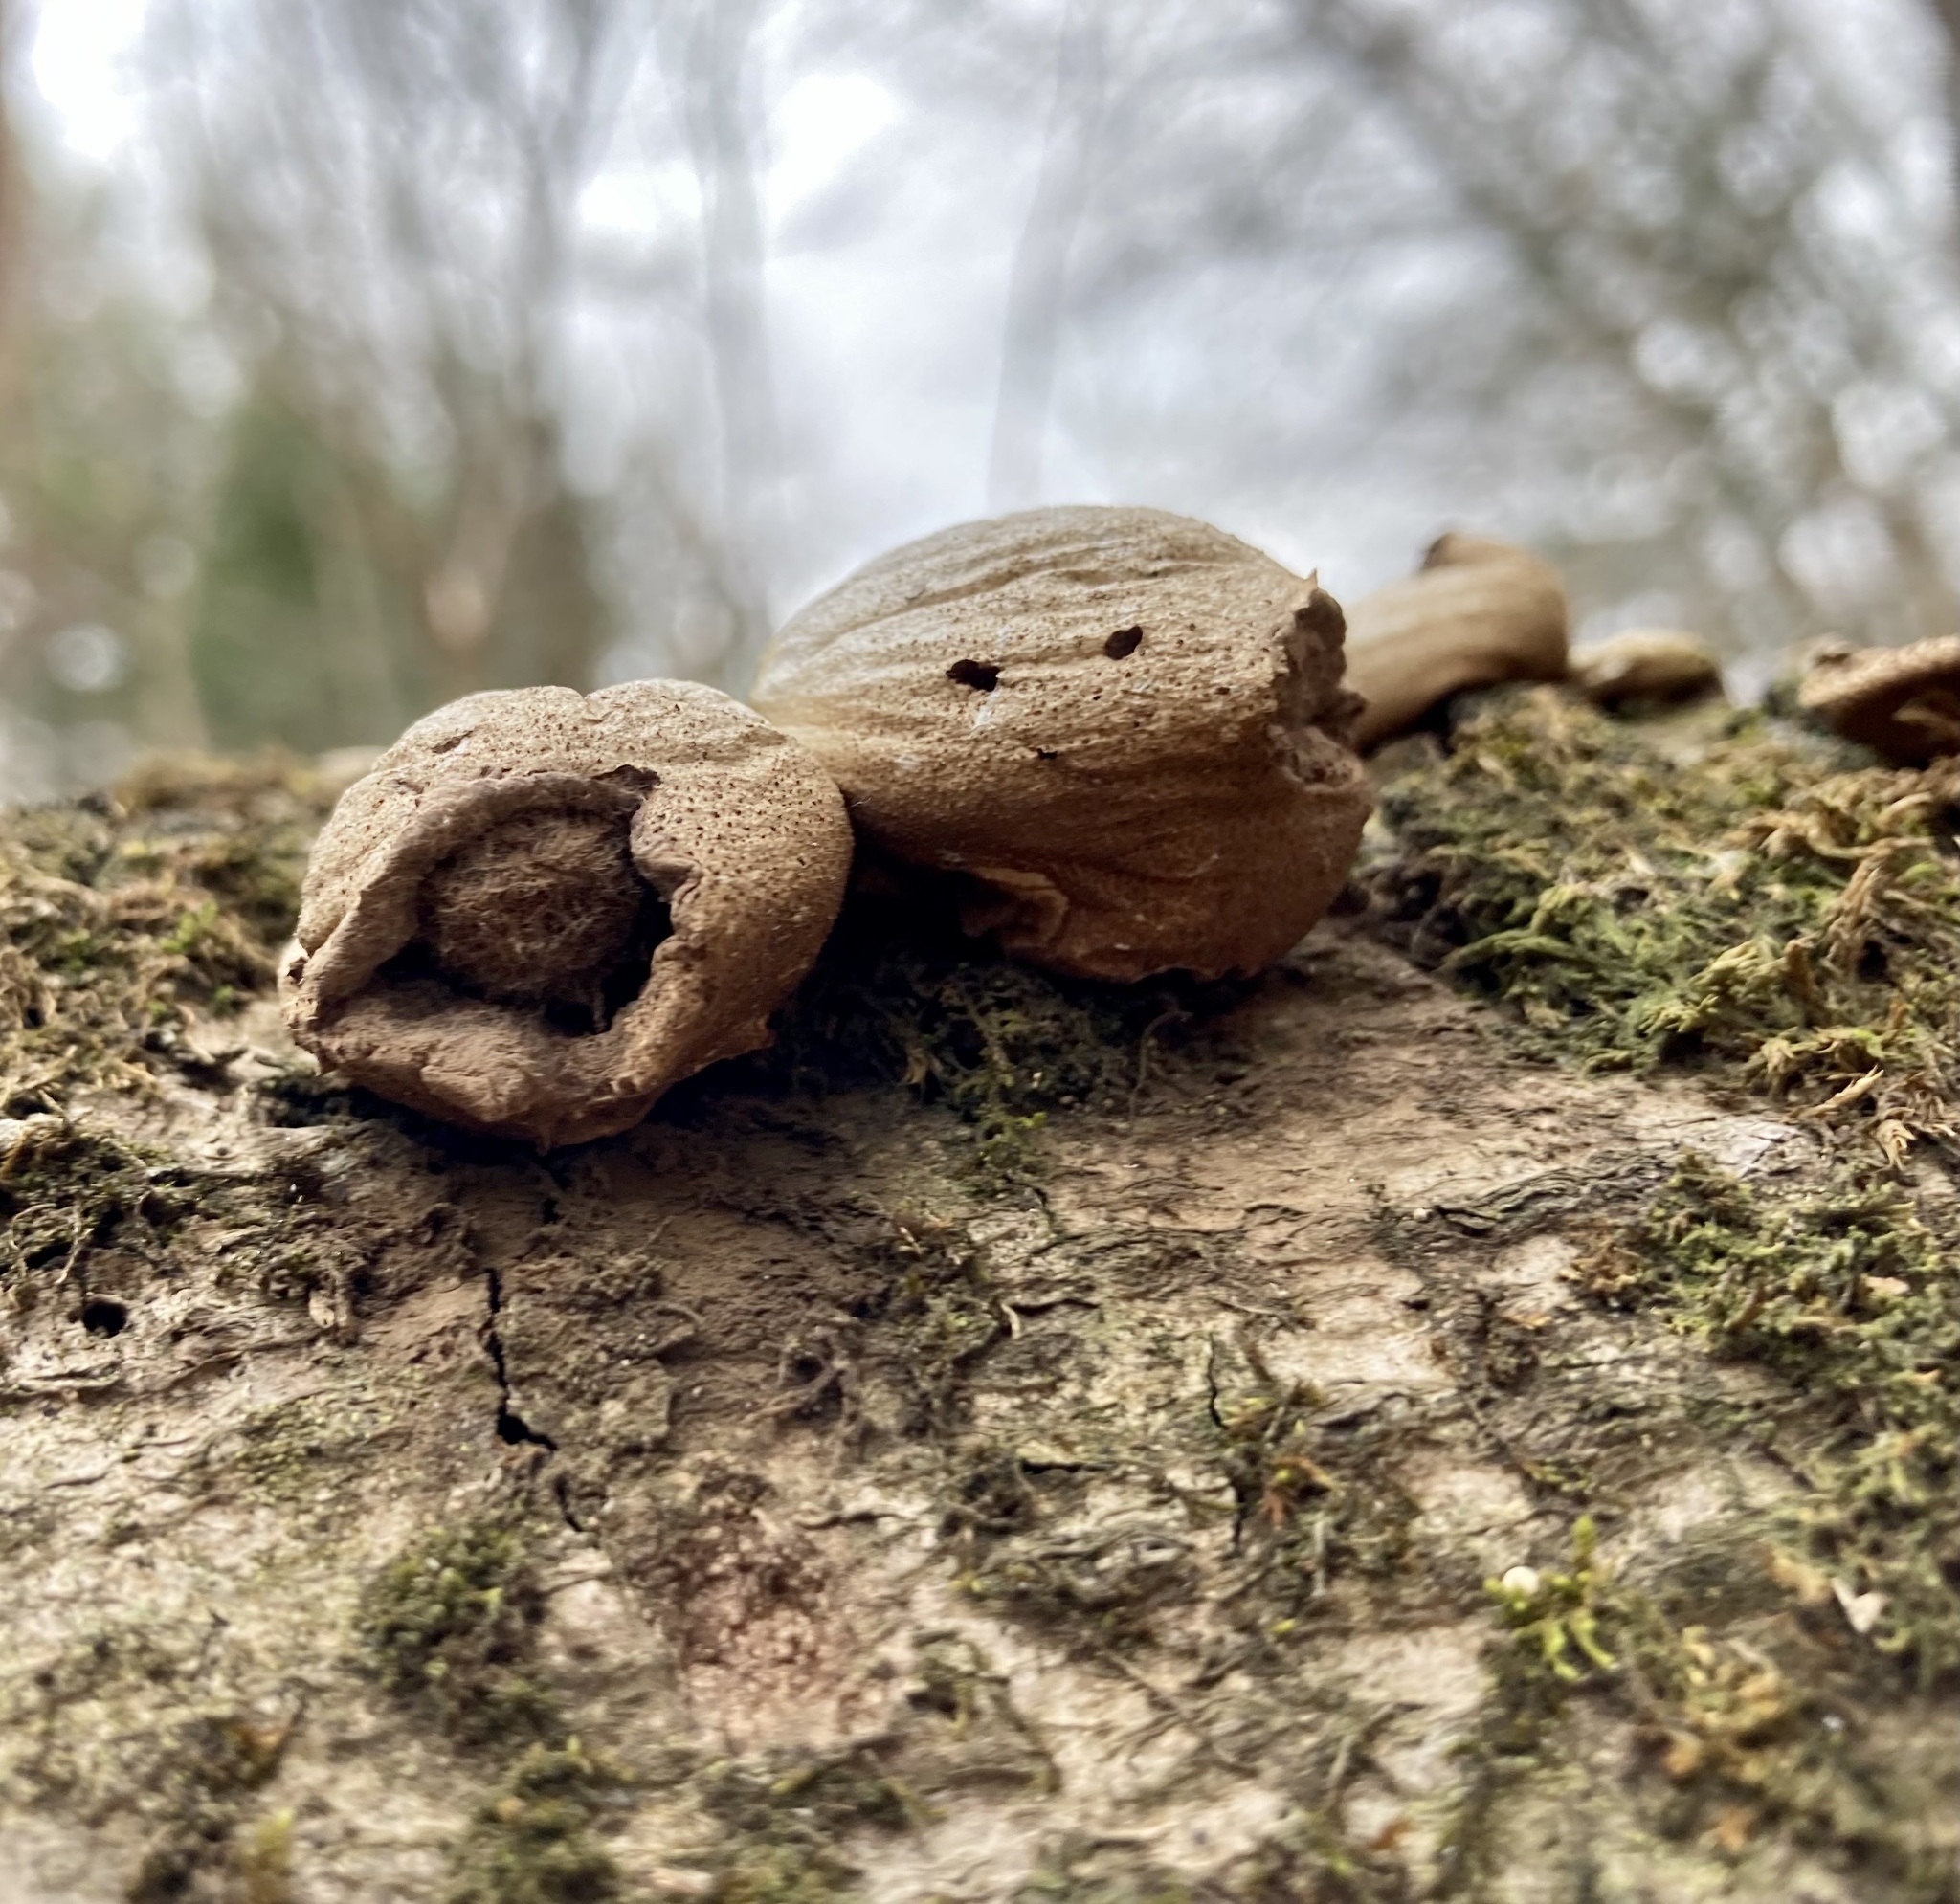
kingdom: Fungi
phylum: Basidiomycota
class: Agaricomycetes
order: Agaricales
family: Lycoperdaceae
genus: Apioperdon
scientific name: Apioperdon pyriforme
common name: Pear-shaped puffball
